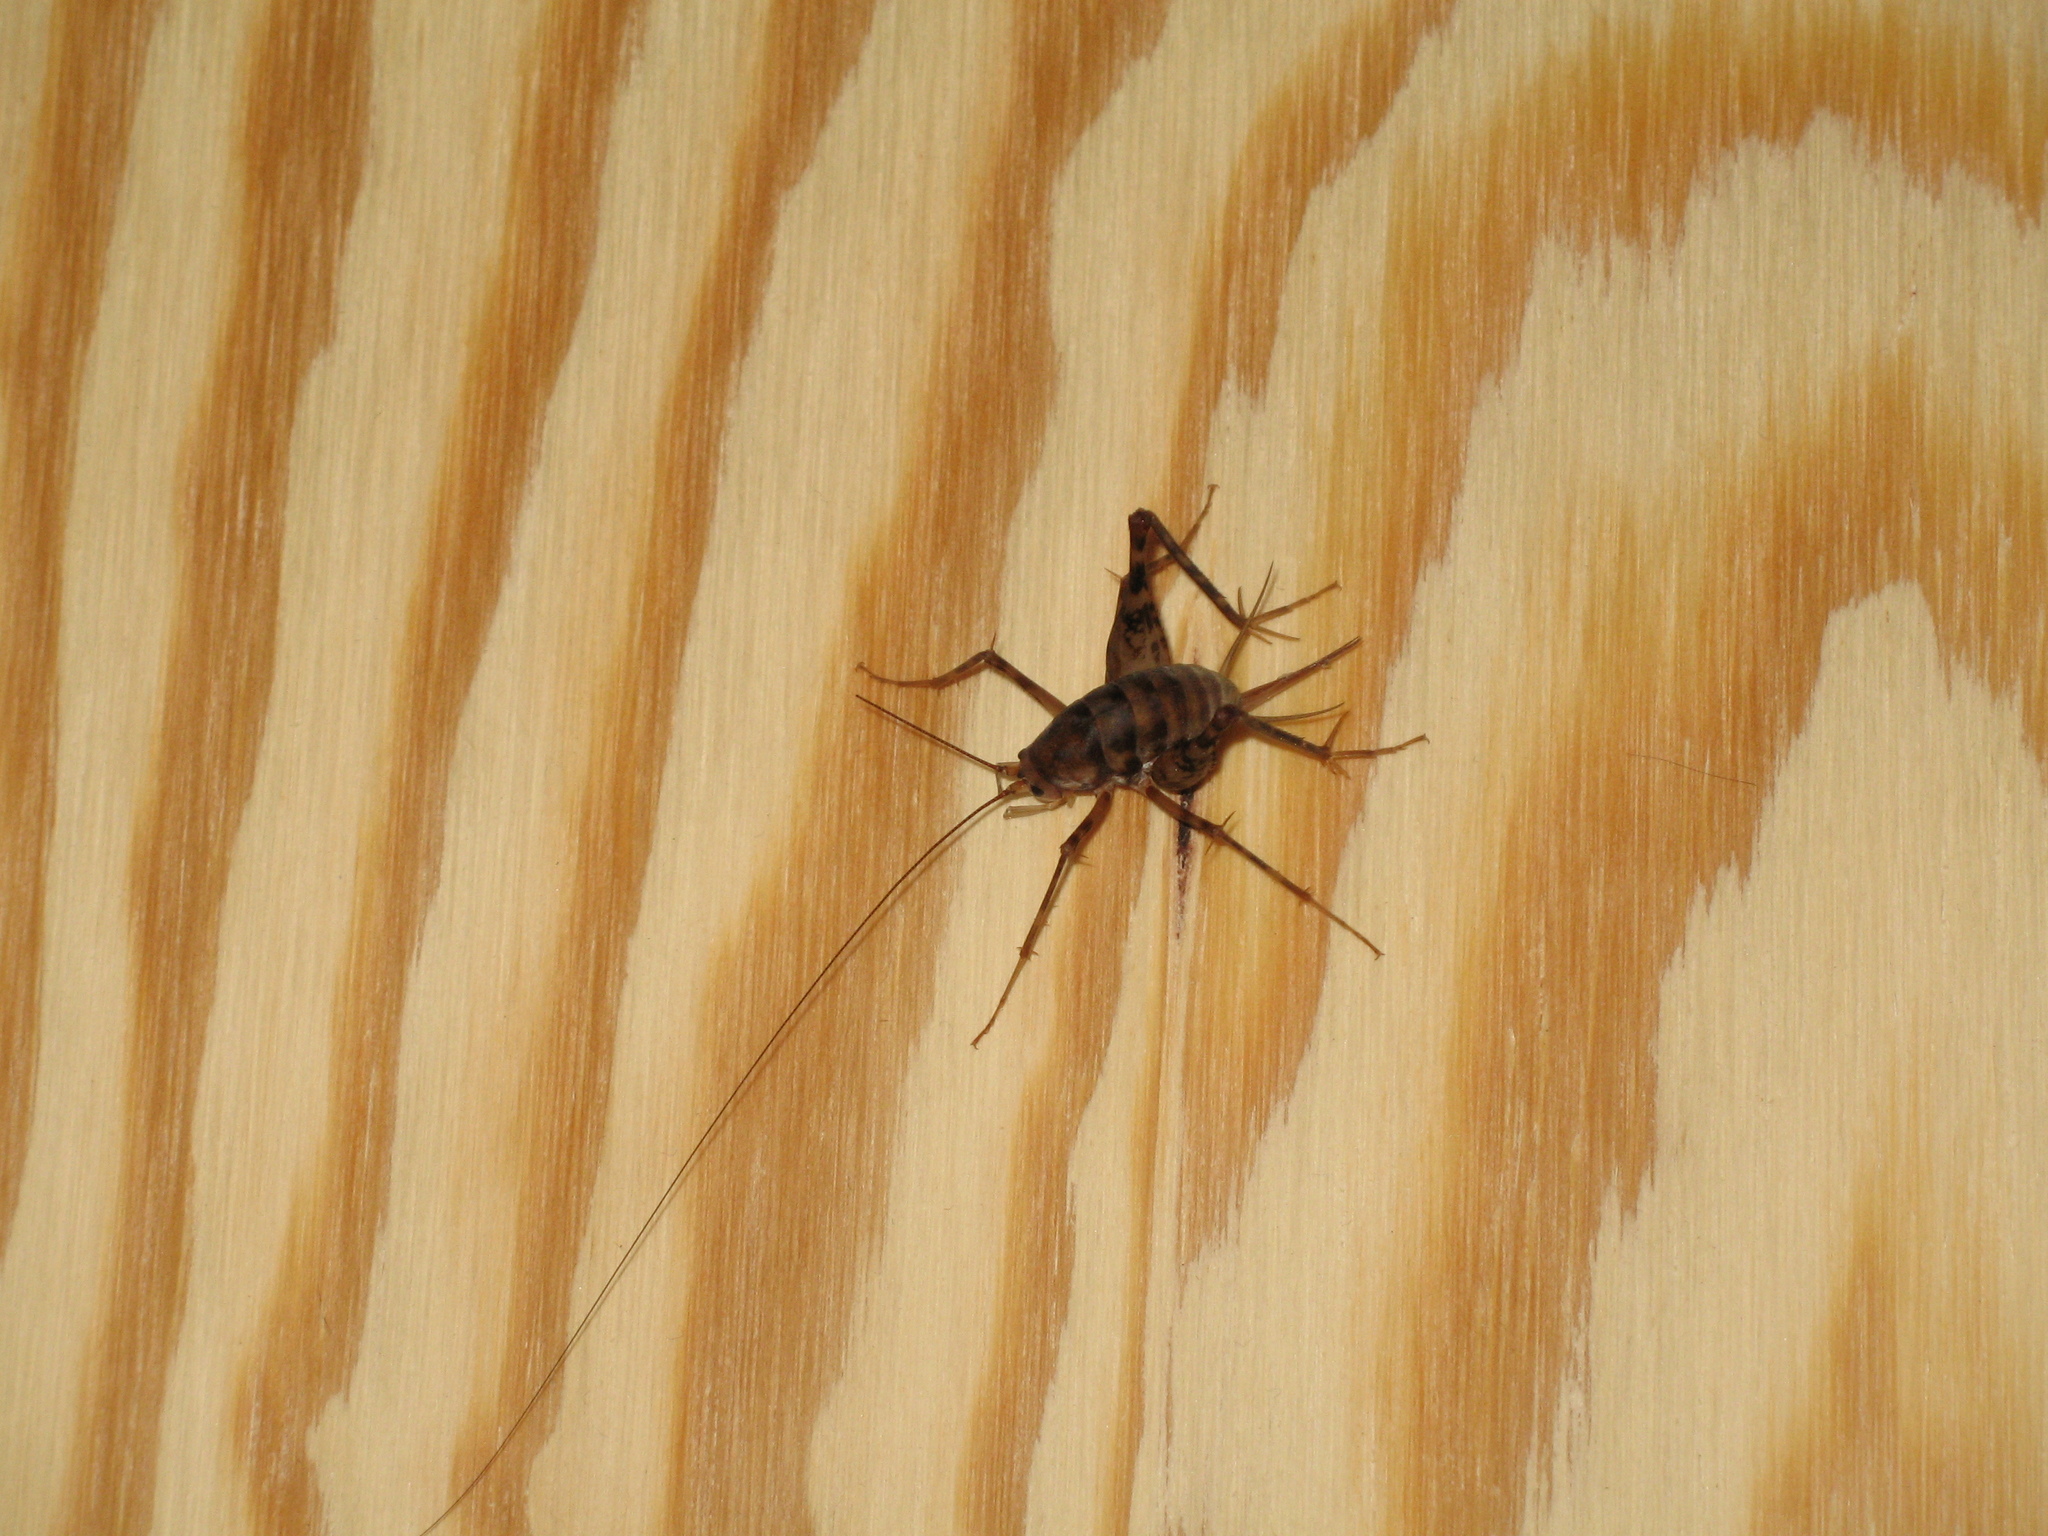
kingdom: Animalia
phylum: Arthropoda
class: Insecta
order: Orthoptera
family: Rhaphidophoridae
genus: Tachycines
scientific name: Tachycines asynamorus
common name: Greenhouse camel cricket
